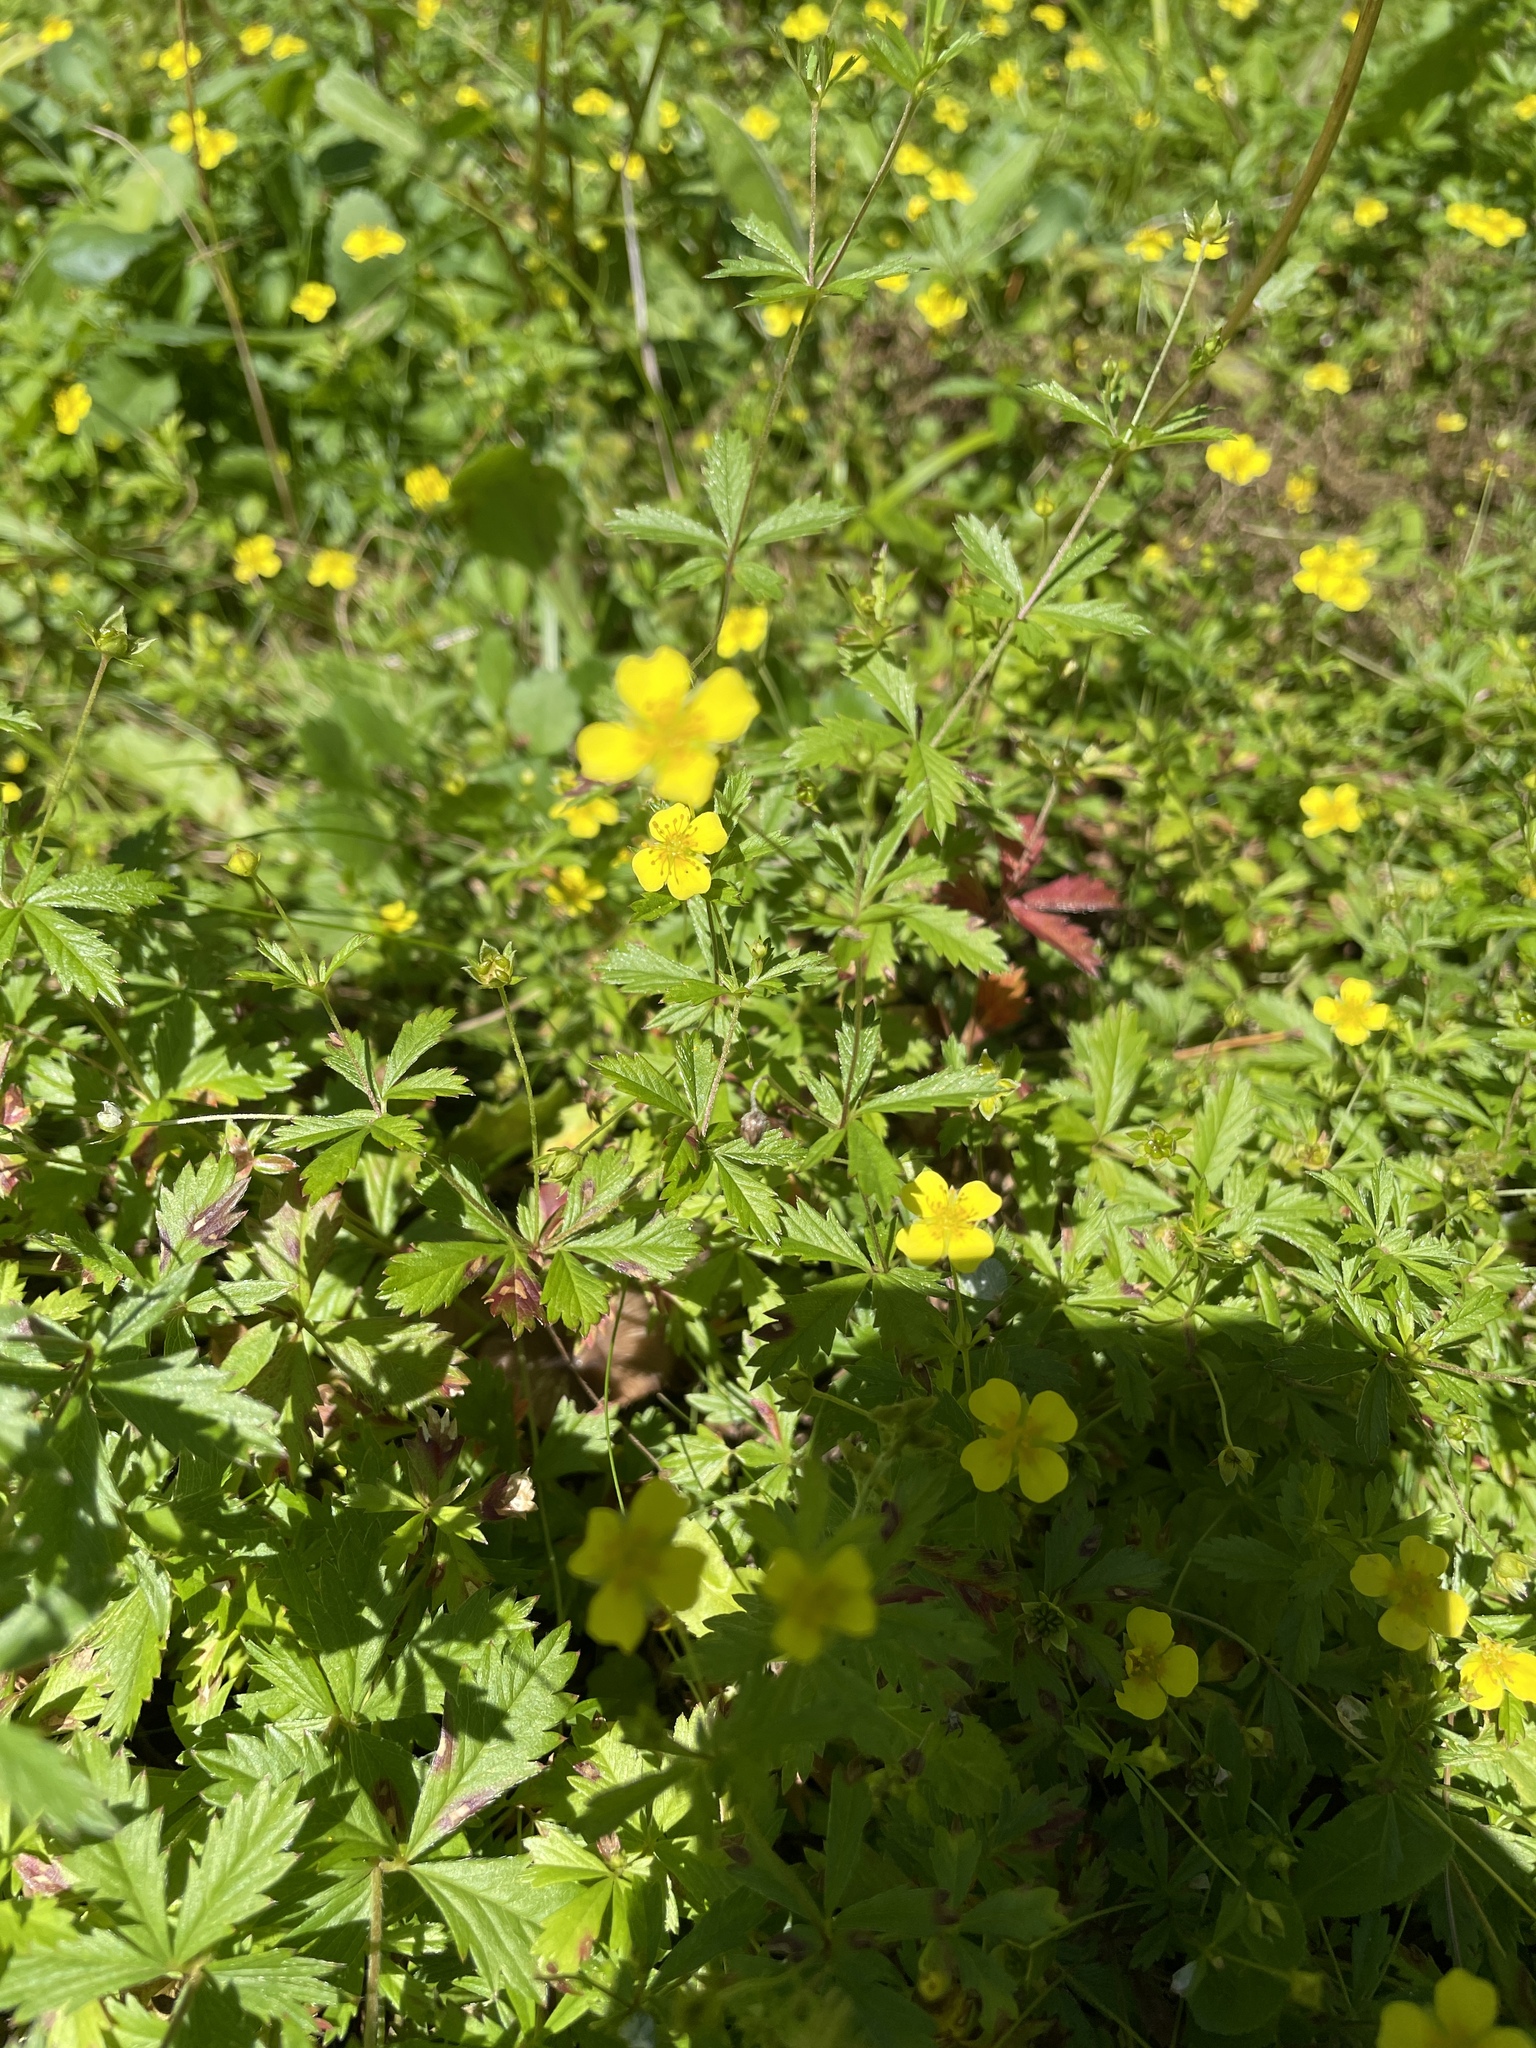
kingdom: Plantae
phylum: Tracheophyta
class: Magnoliopsida
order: Rosales
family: Rosaceae
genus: Potentilla
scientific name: Potentilla erecta
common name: Tormentil
